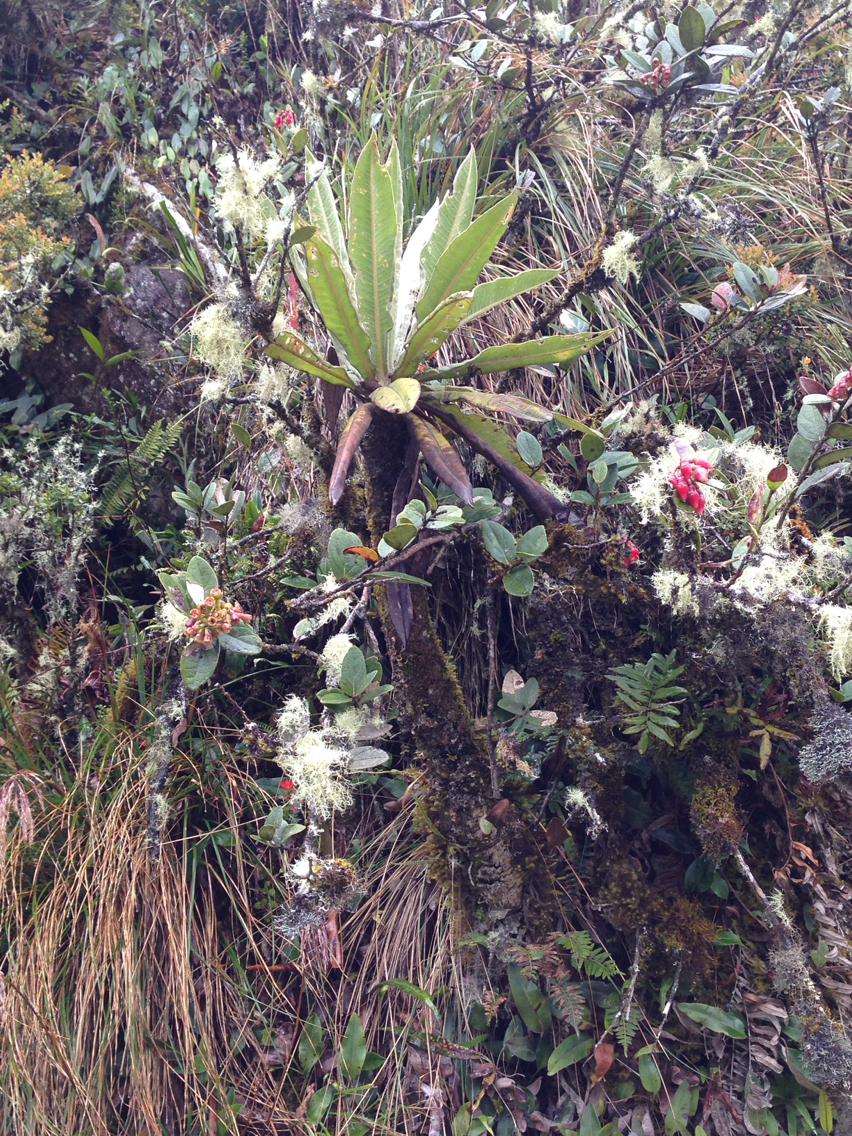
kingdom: Plantae
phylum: Tracheophyta
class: Magnoliopsida
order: Asterales
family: Asteraceae
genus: Espeletia
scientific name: Espeletia uribei
